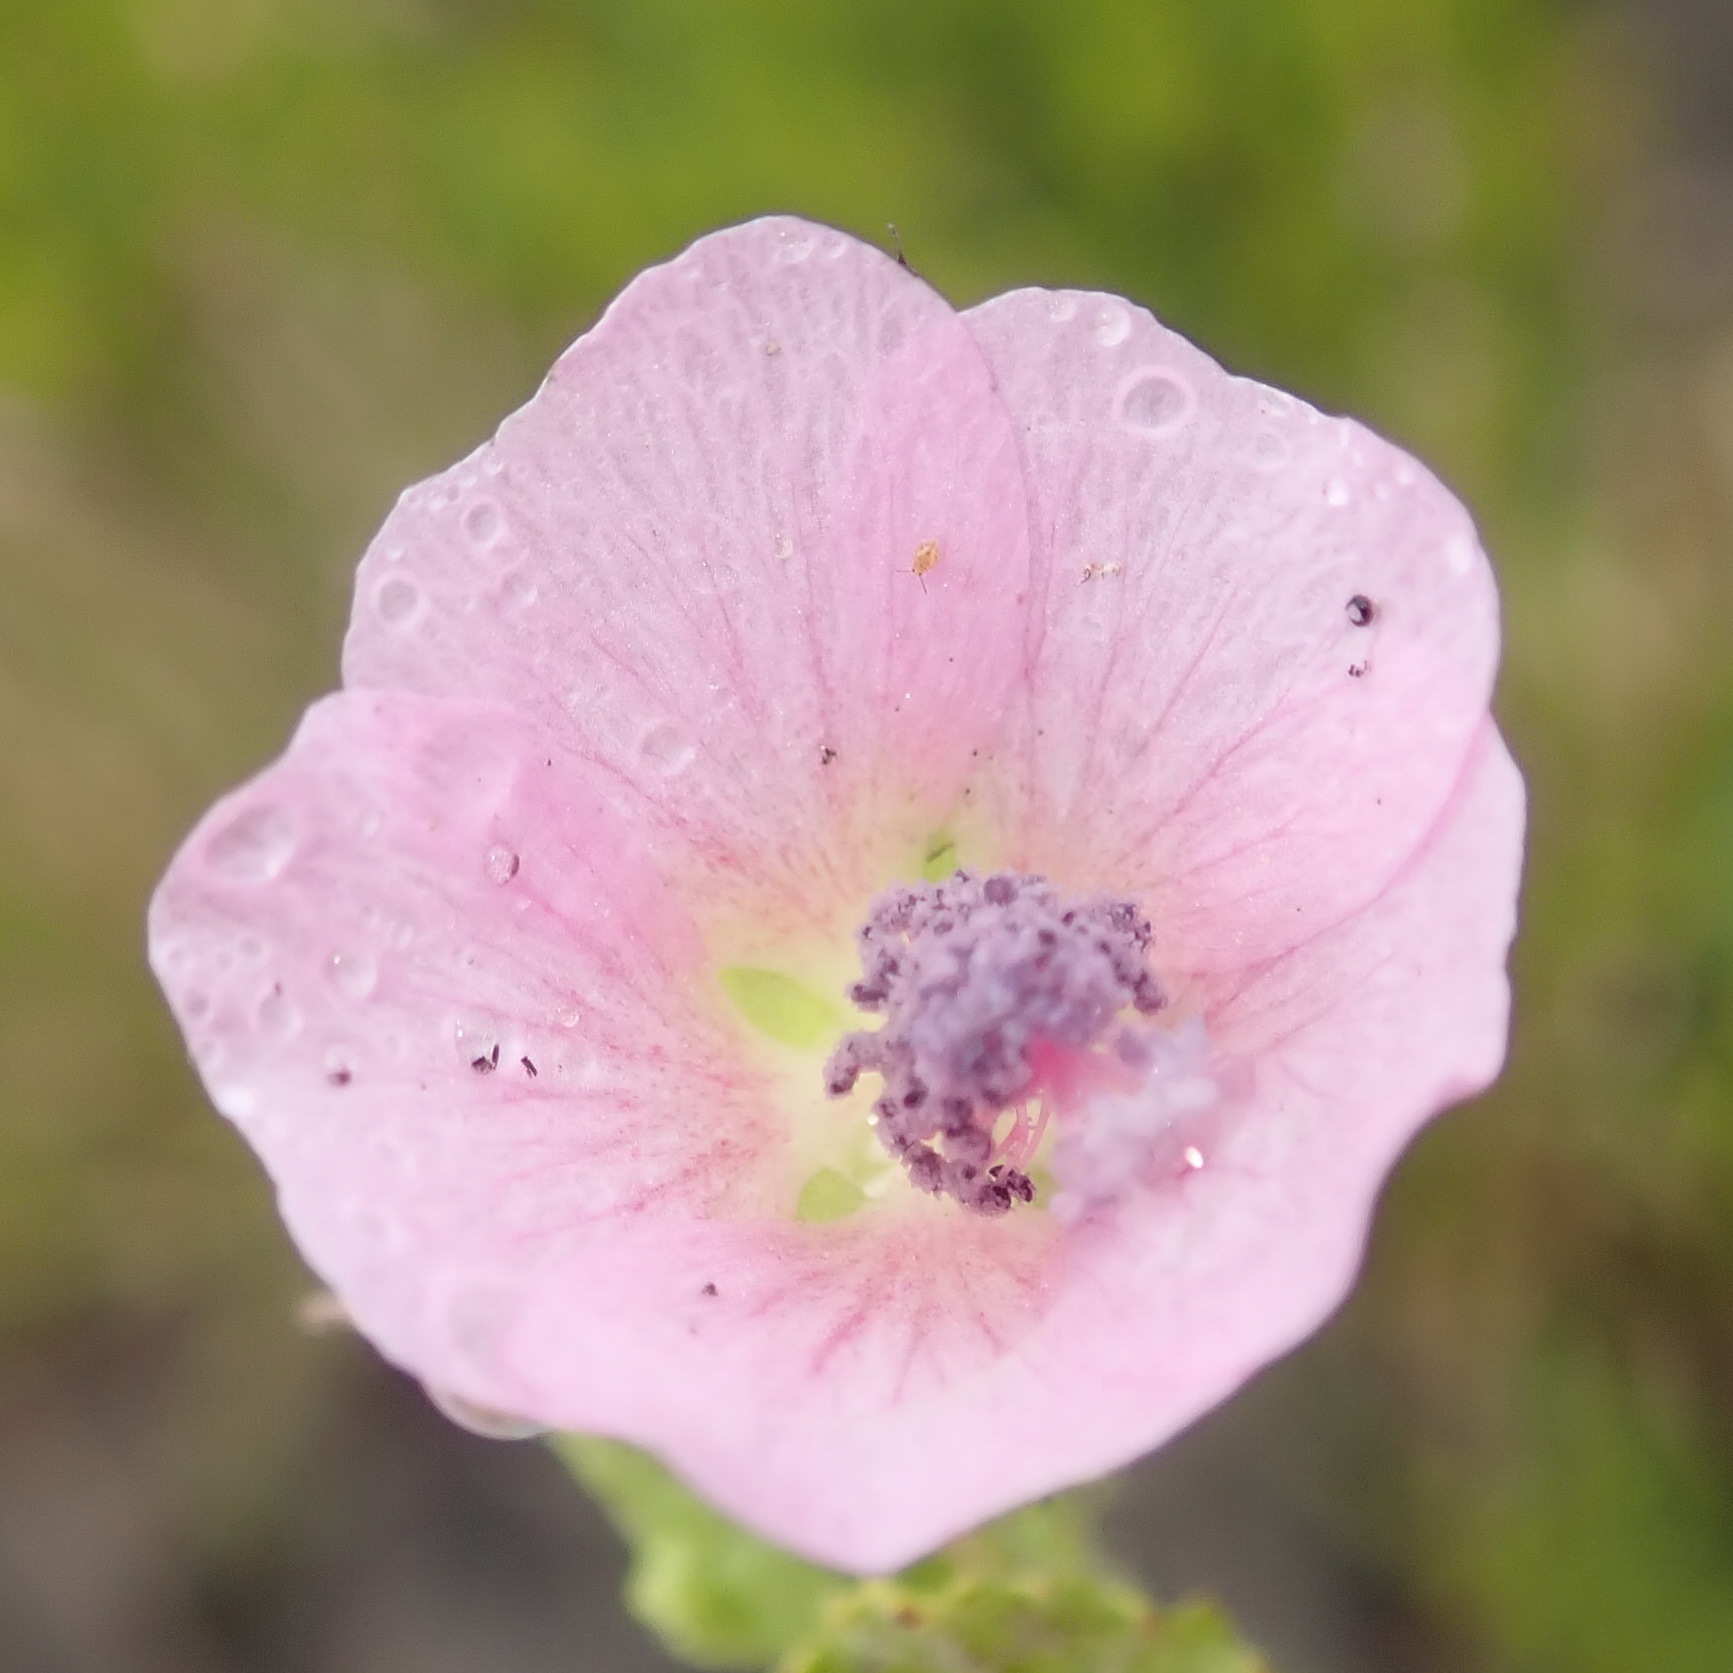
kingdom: Plantae
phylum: Tracheophyta
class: Magnoliopsida
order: Malvales
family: Malvaceae
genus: Anisodontea
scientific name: Anisodontea scabrosa
